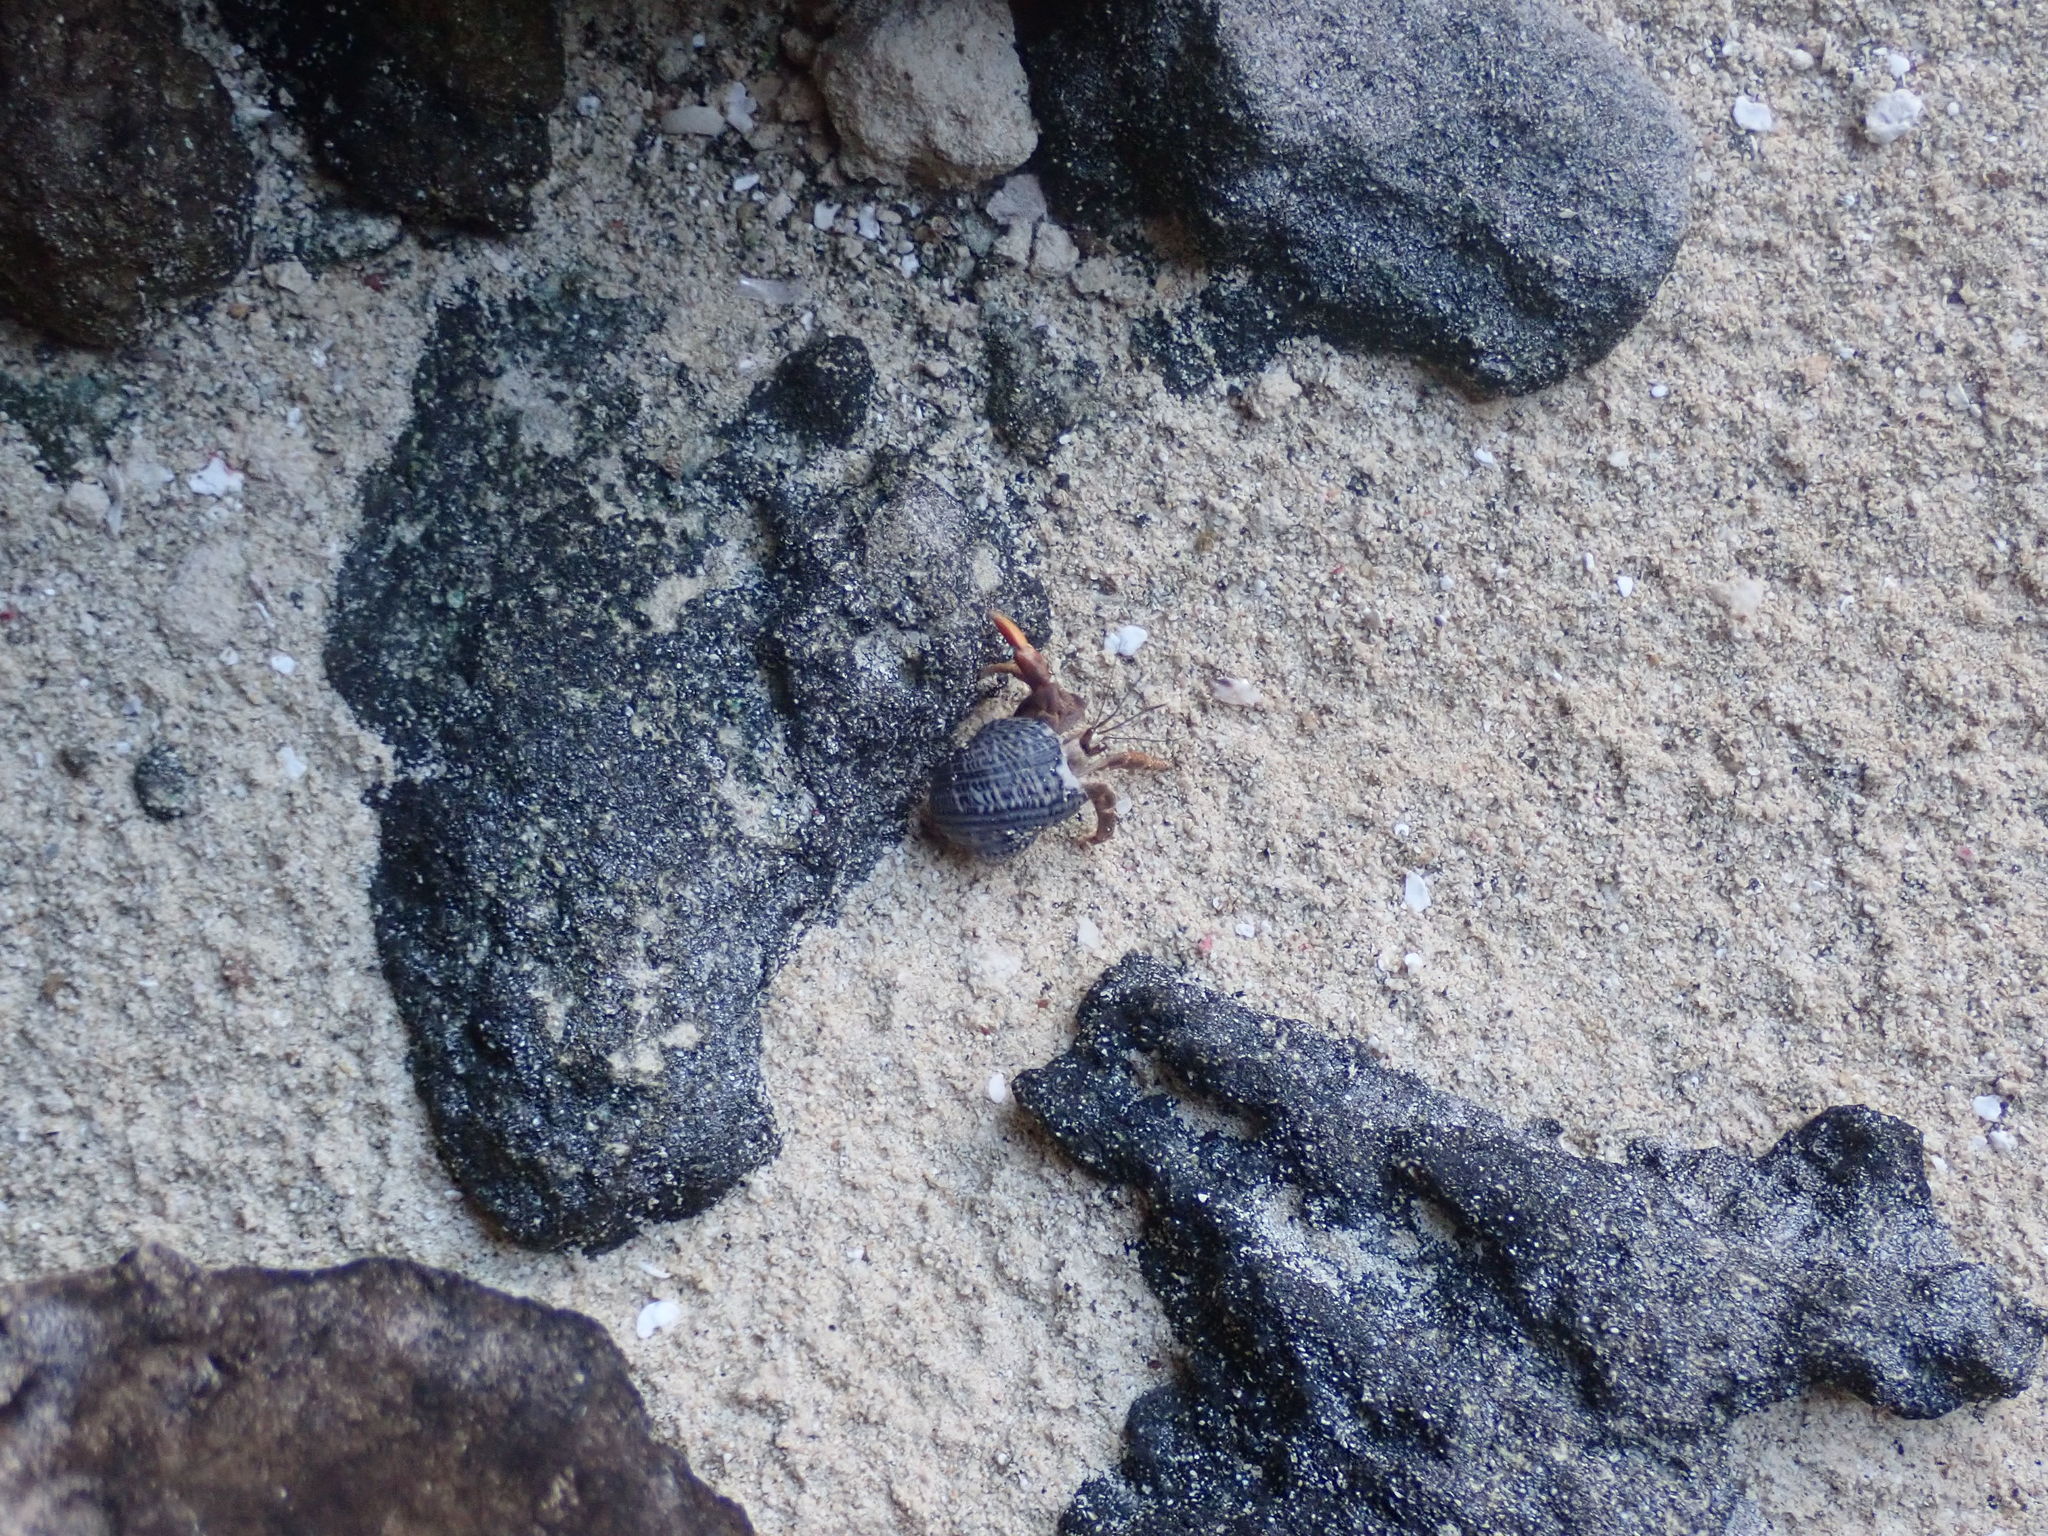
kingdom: Animalia
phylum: Arthropoda
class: Malacostraca
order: Decapoda
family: Coenobitidae
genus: Coenobita
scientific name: Coenobita clypeatus
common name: Caribbean hermit crab
